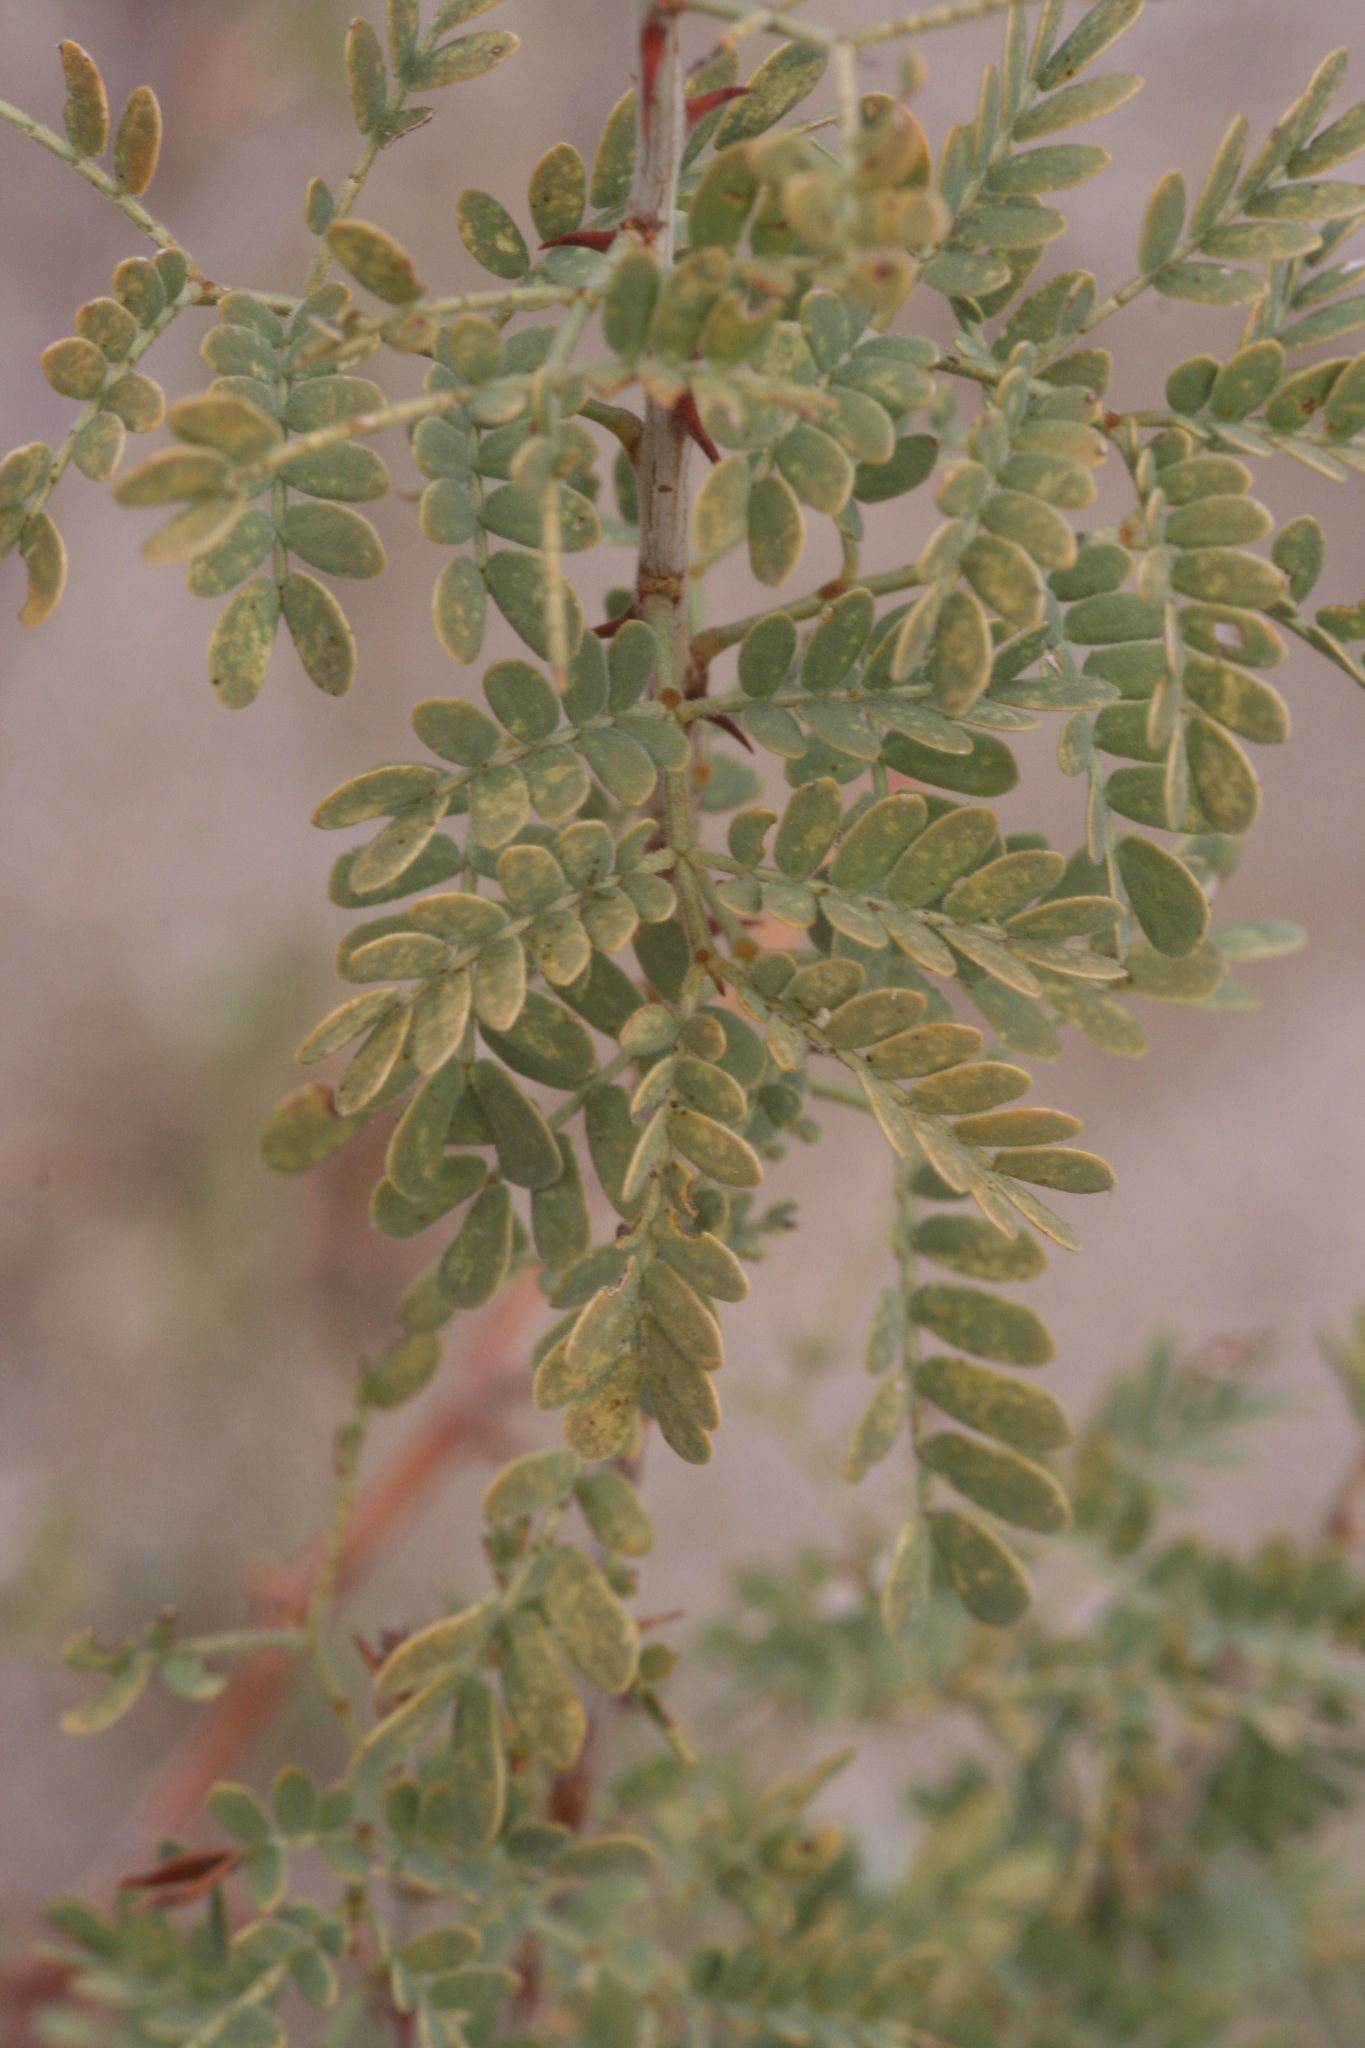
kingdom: Plantae
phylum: Tracheophyta
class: Magnoliopsida
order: Fabales
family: Fabaceae
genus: Senegalia
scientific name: Senegalia greggii
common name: Texas-mimosa
